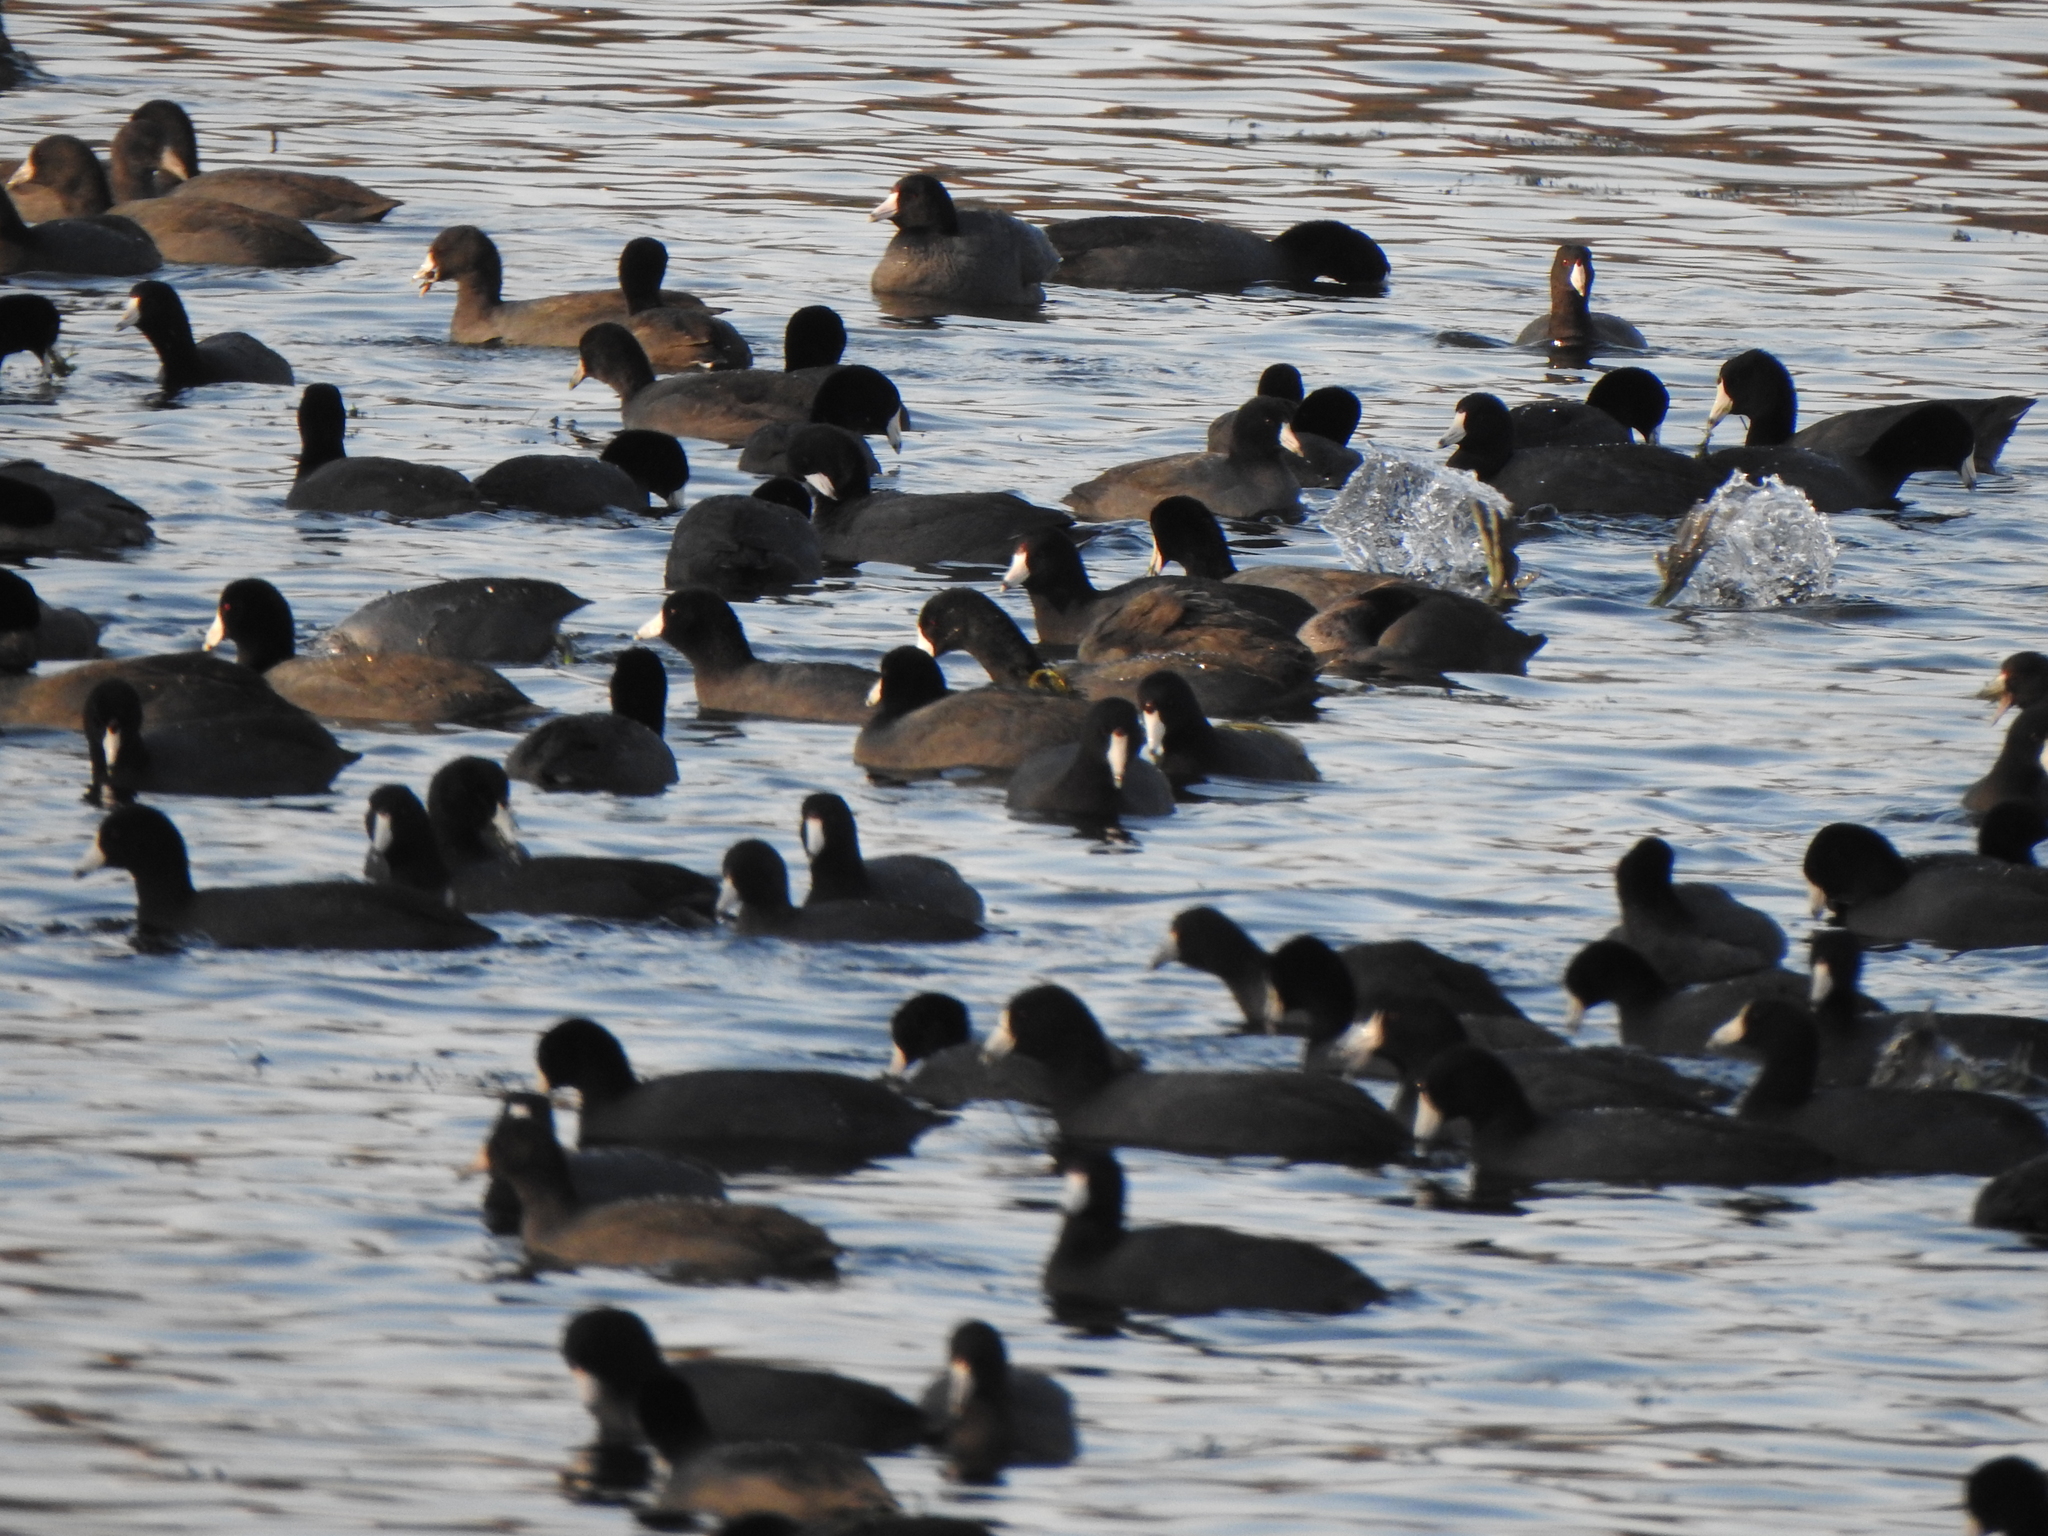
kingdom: Animalia
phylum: Chordata
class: Aves
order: Gruiformes
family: Rallidae
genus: Fulica
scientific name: Fulica americana
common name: American coot
